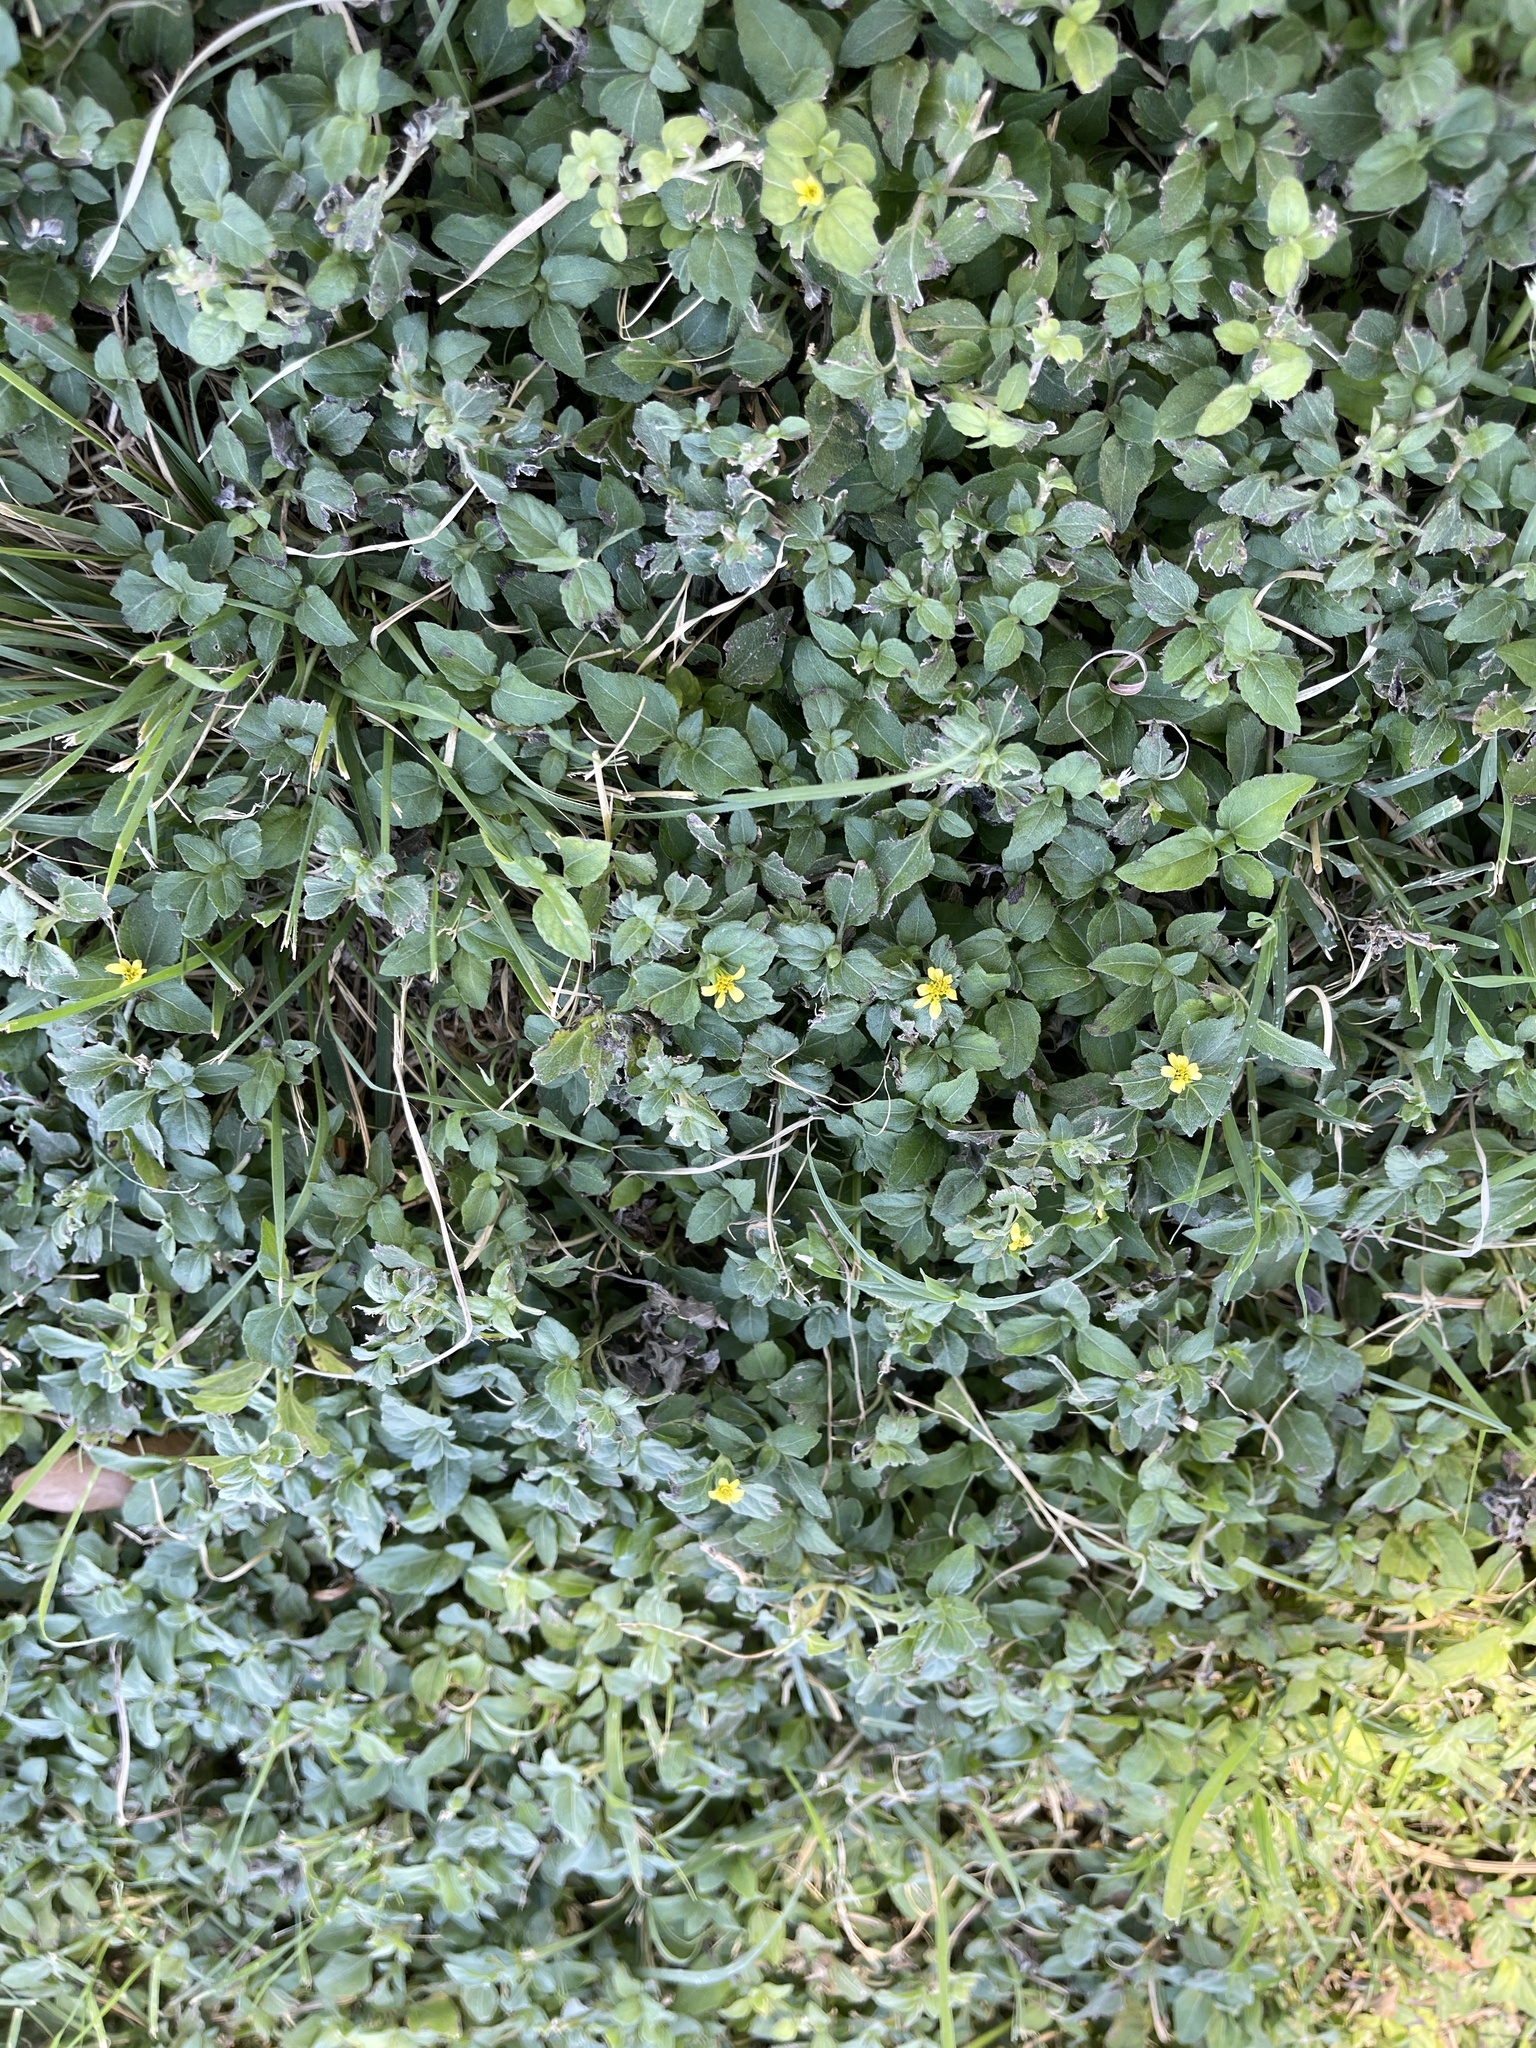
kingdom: Plantae
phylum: Tracheophyta
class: Magnoliopsida
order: Asterales
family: Asteraceae
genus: Calyptocarpus
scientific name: Calyptocarpus vialis
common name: Straggler daisy
